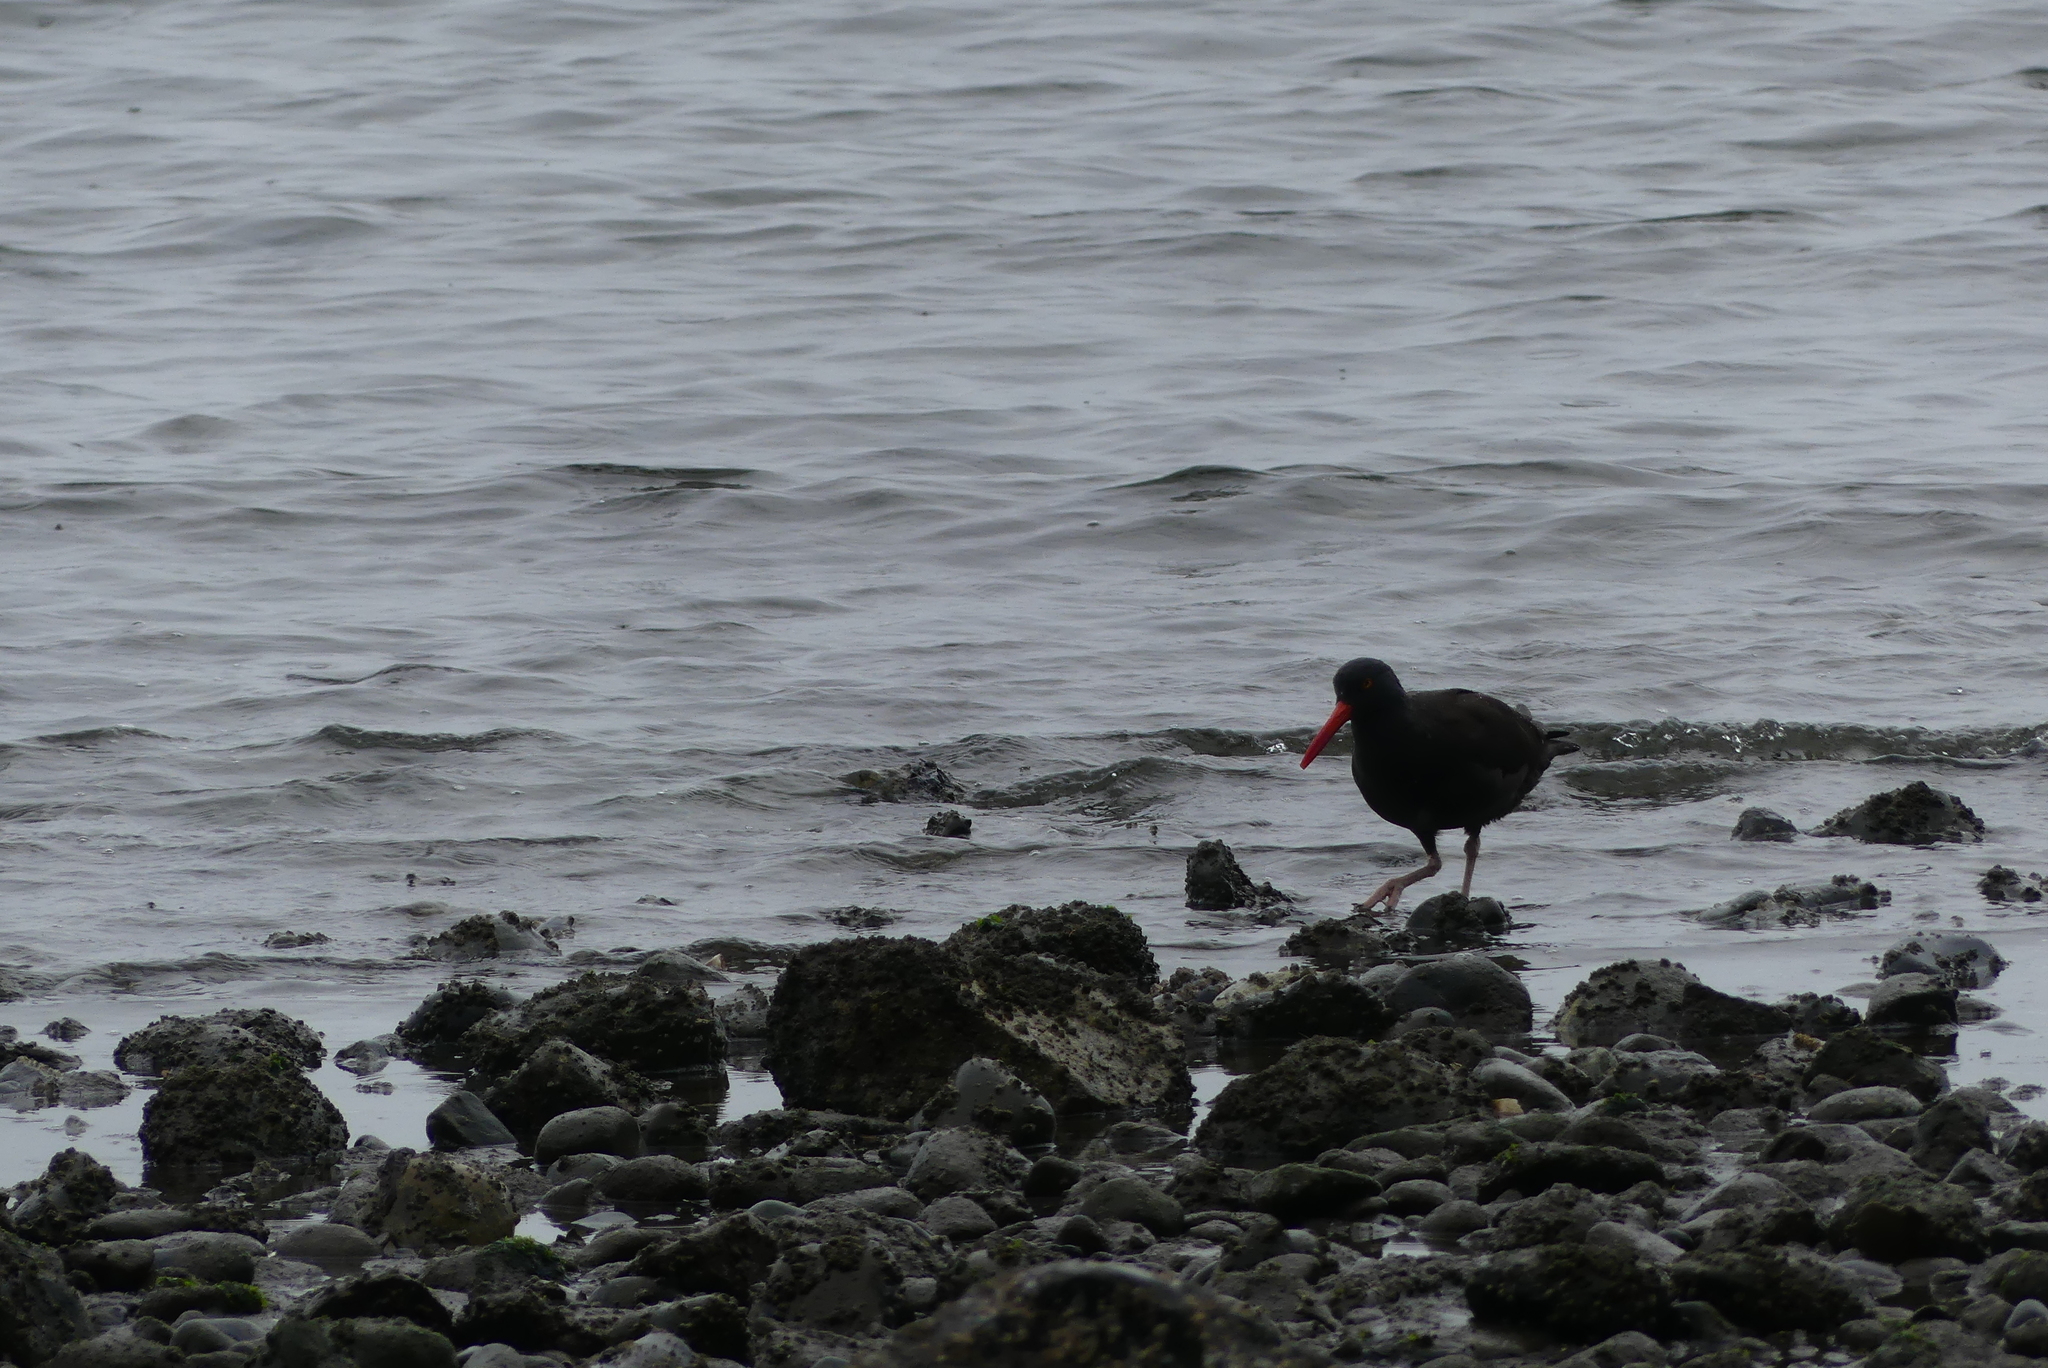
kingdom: Animalia
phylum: Chordata
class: Aves
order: Charadriiformes
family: Haematopodidae
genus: Haematopus
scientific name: Haematopus bachmani
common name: Black oystercatcher
